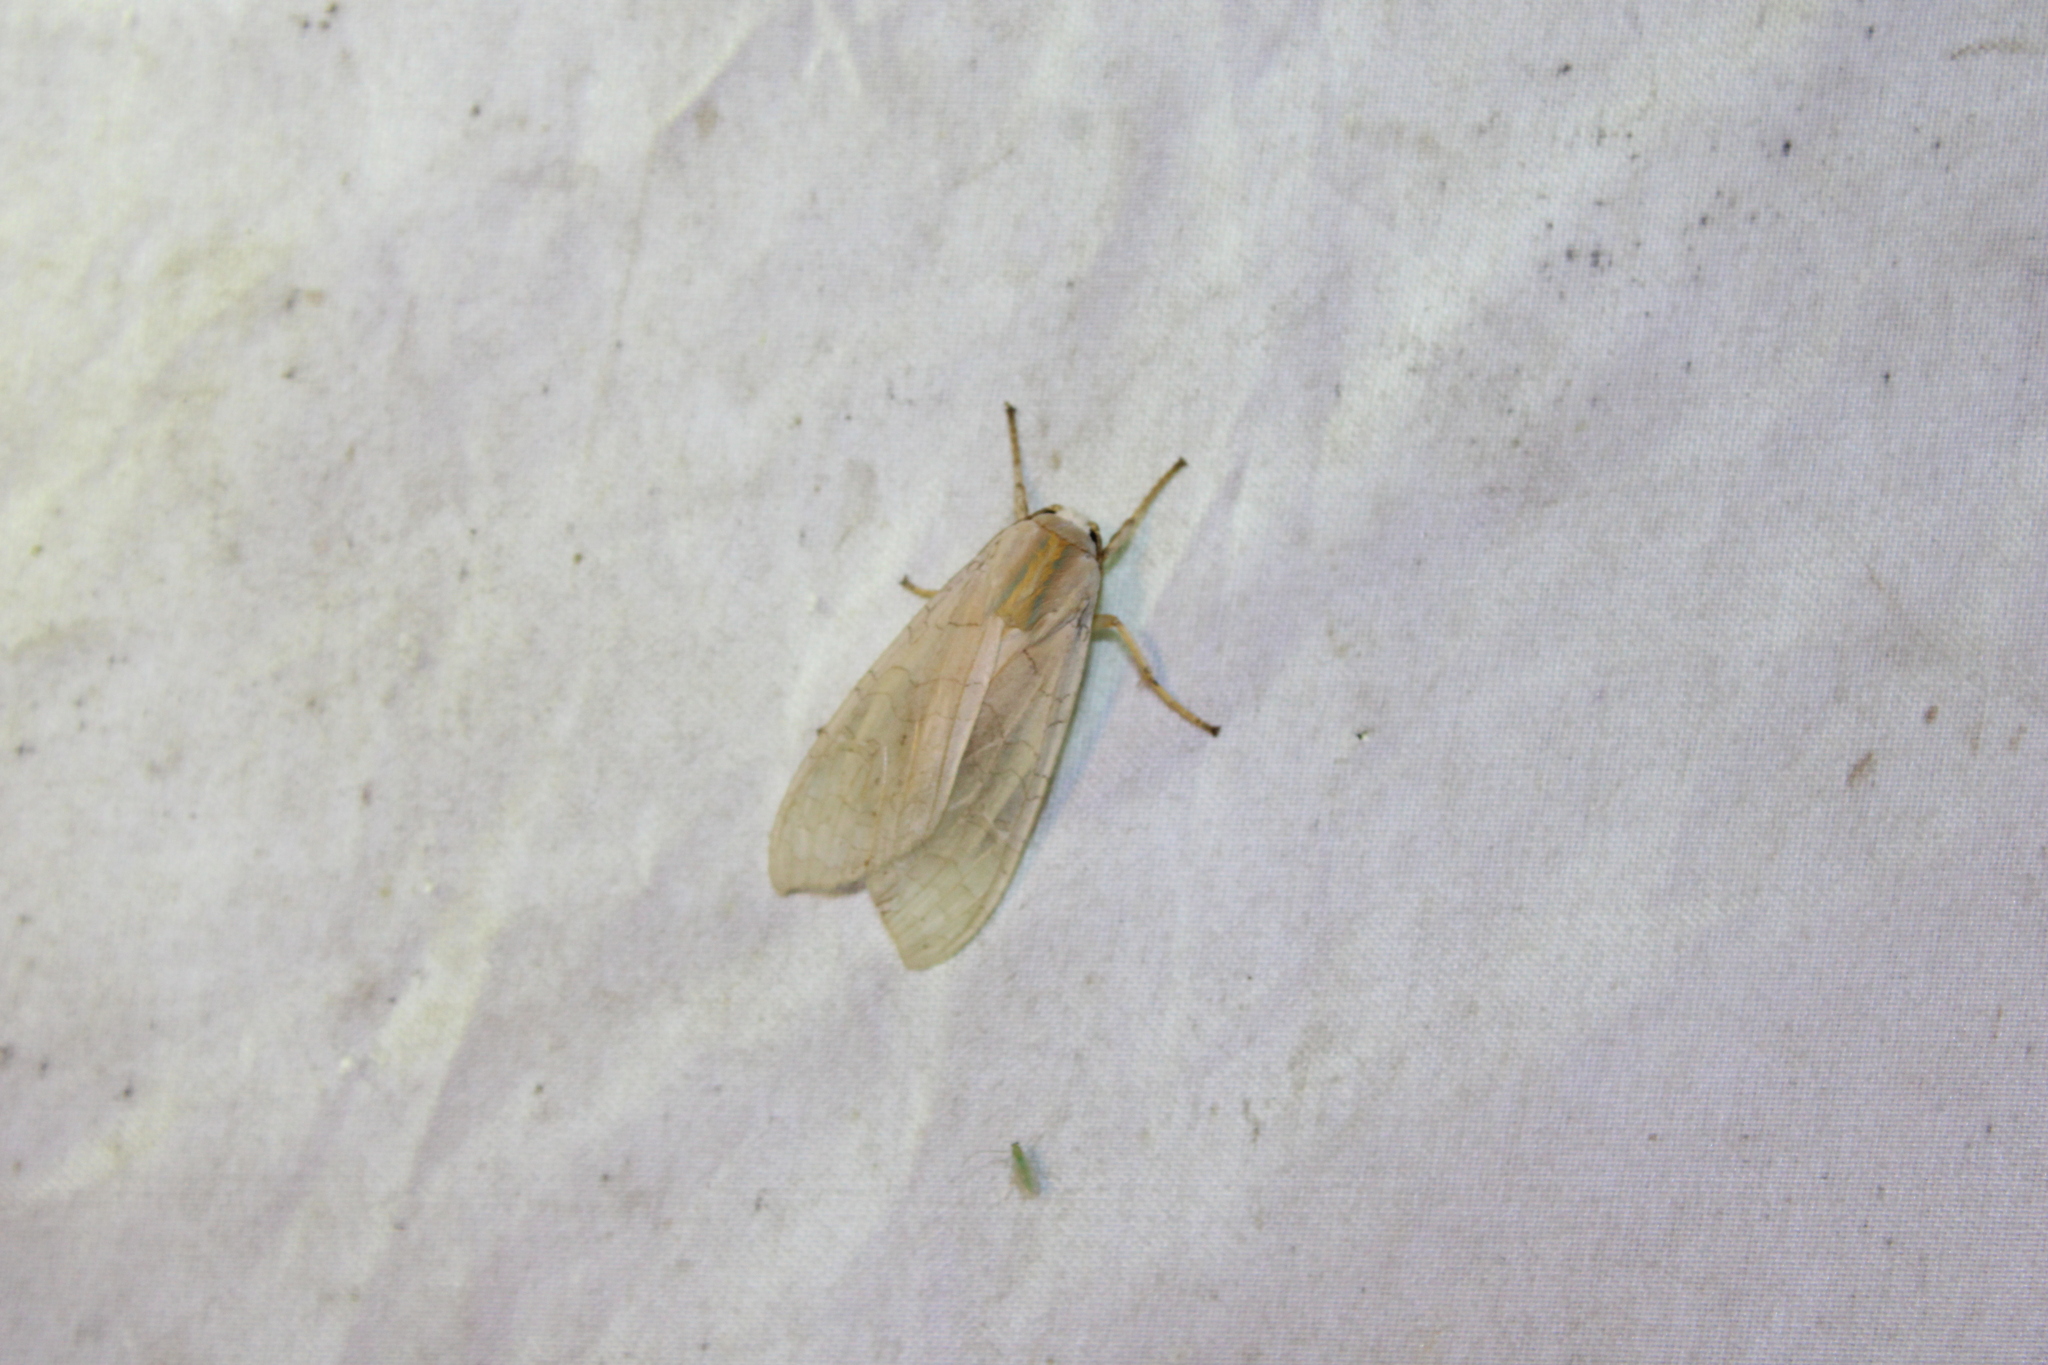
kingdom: Animalia
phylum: Arthropoda
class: Insecta
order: Lepidoptera
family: Erebidae
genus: Halysidota
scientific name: Halysidota
